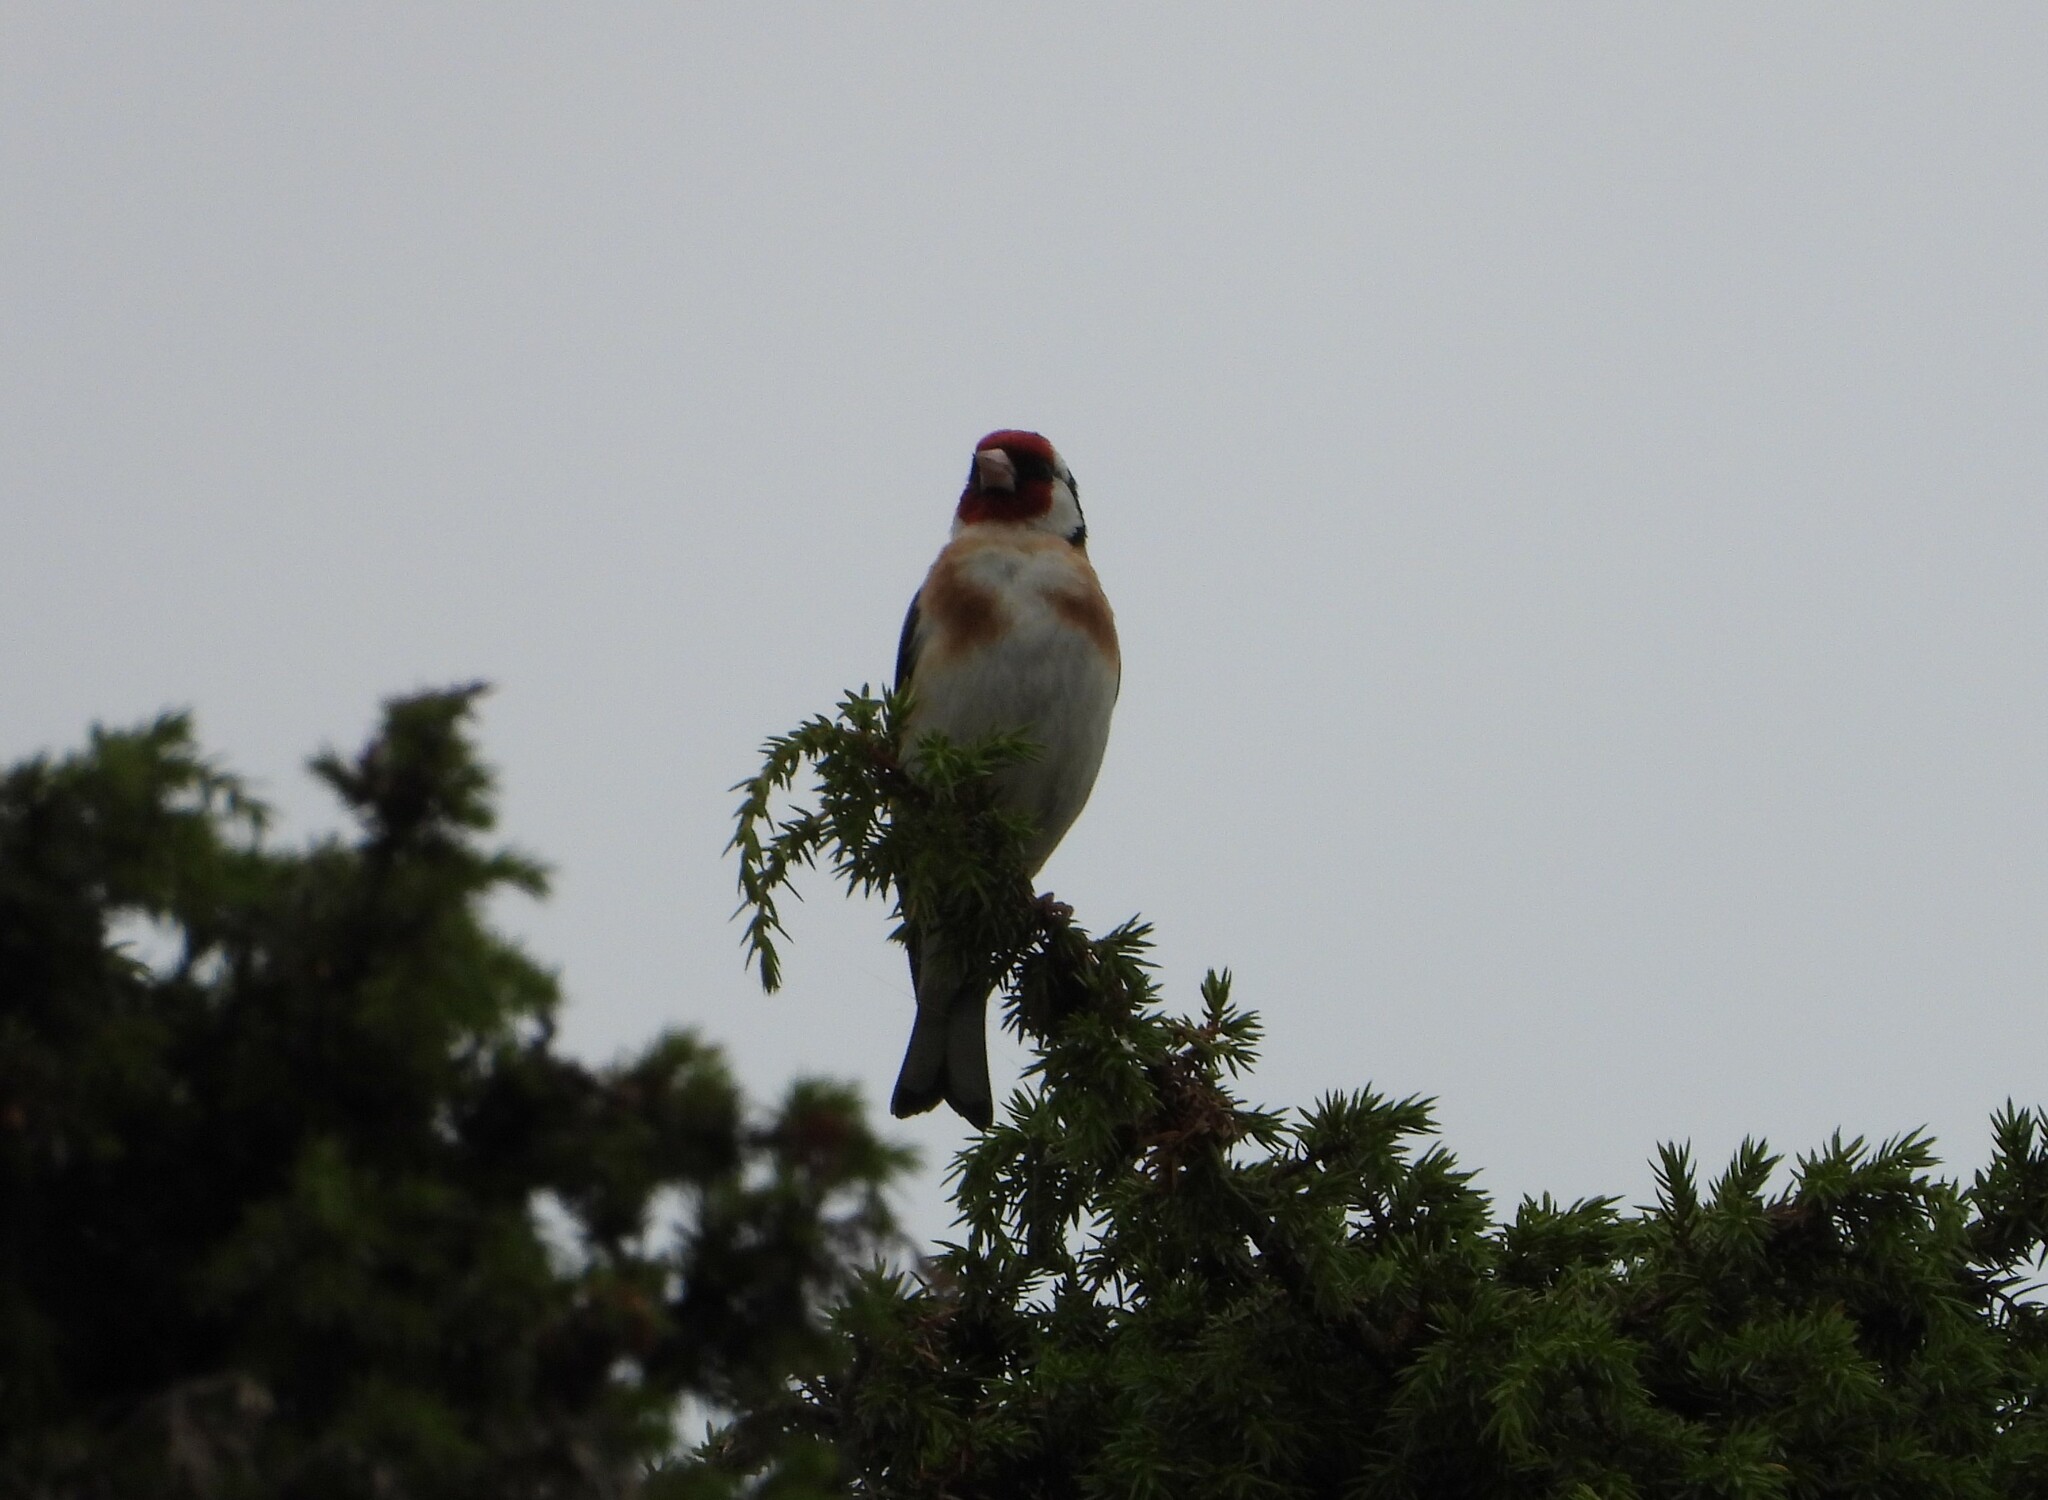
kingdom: Animalia
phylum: Chordata
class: Aves
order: Passeriformes
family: Fringillidae
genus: Carduelis
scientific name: Carduelis carduelis
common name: European goldfinch
